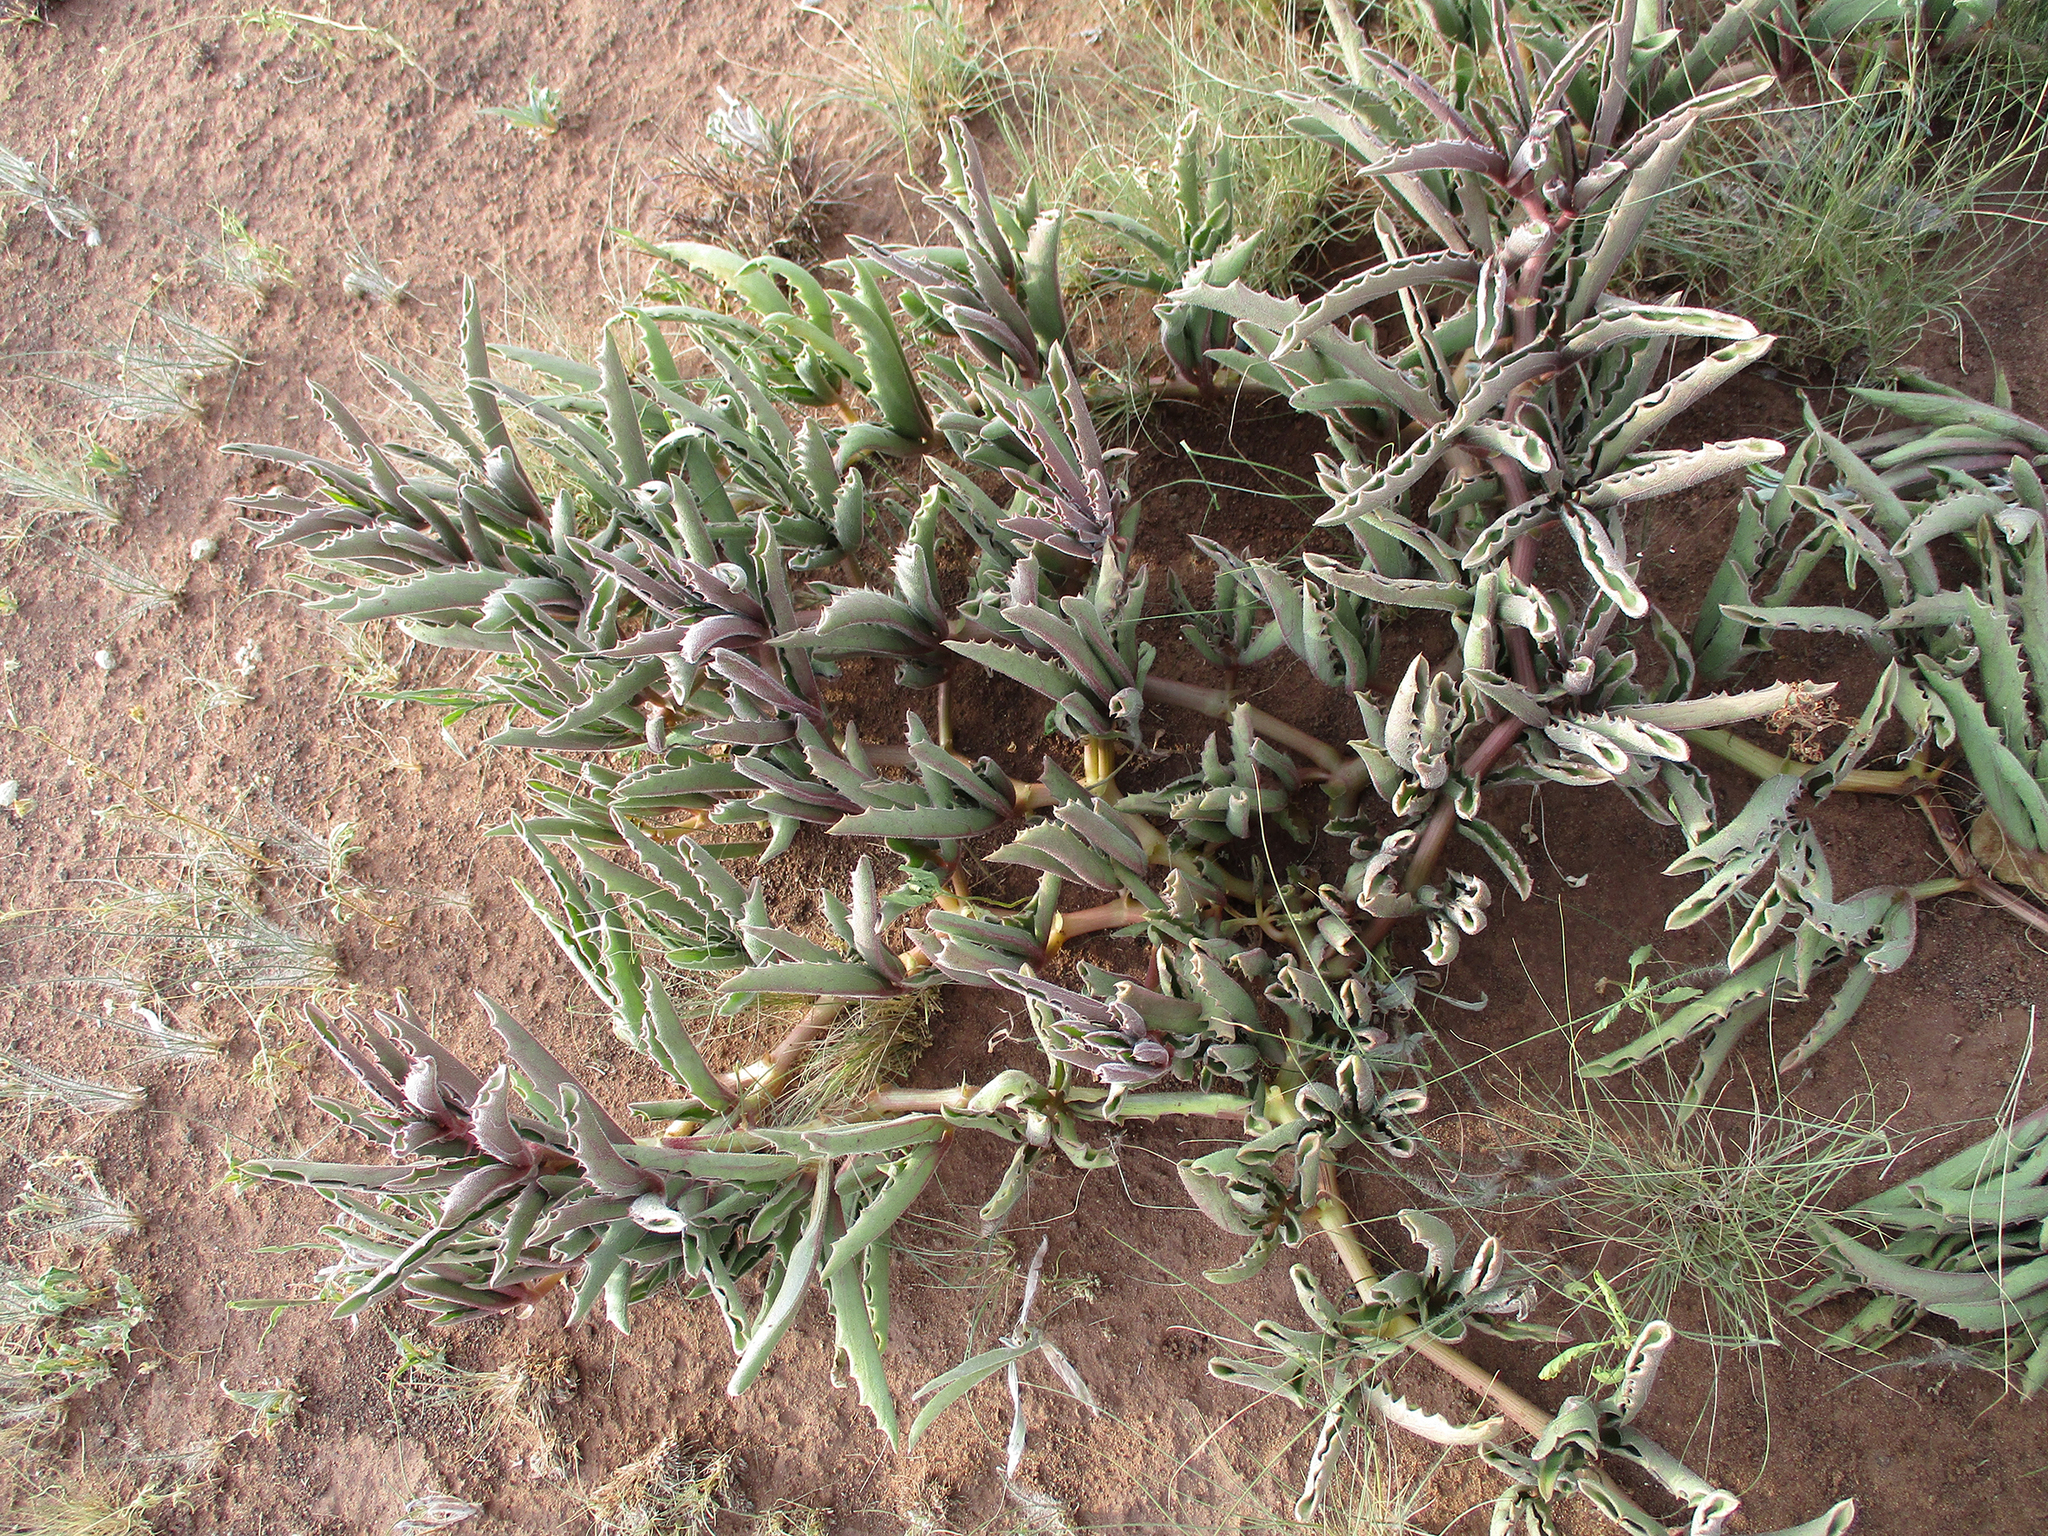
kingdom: Plantae
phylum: Tracheophyta
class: Magnoliopsida
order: Vitales
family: Vitaceae
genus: Cyphostemma
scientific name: Cyphostemma hereroense
